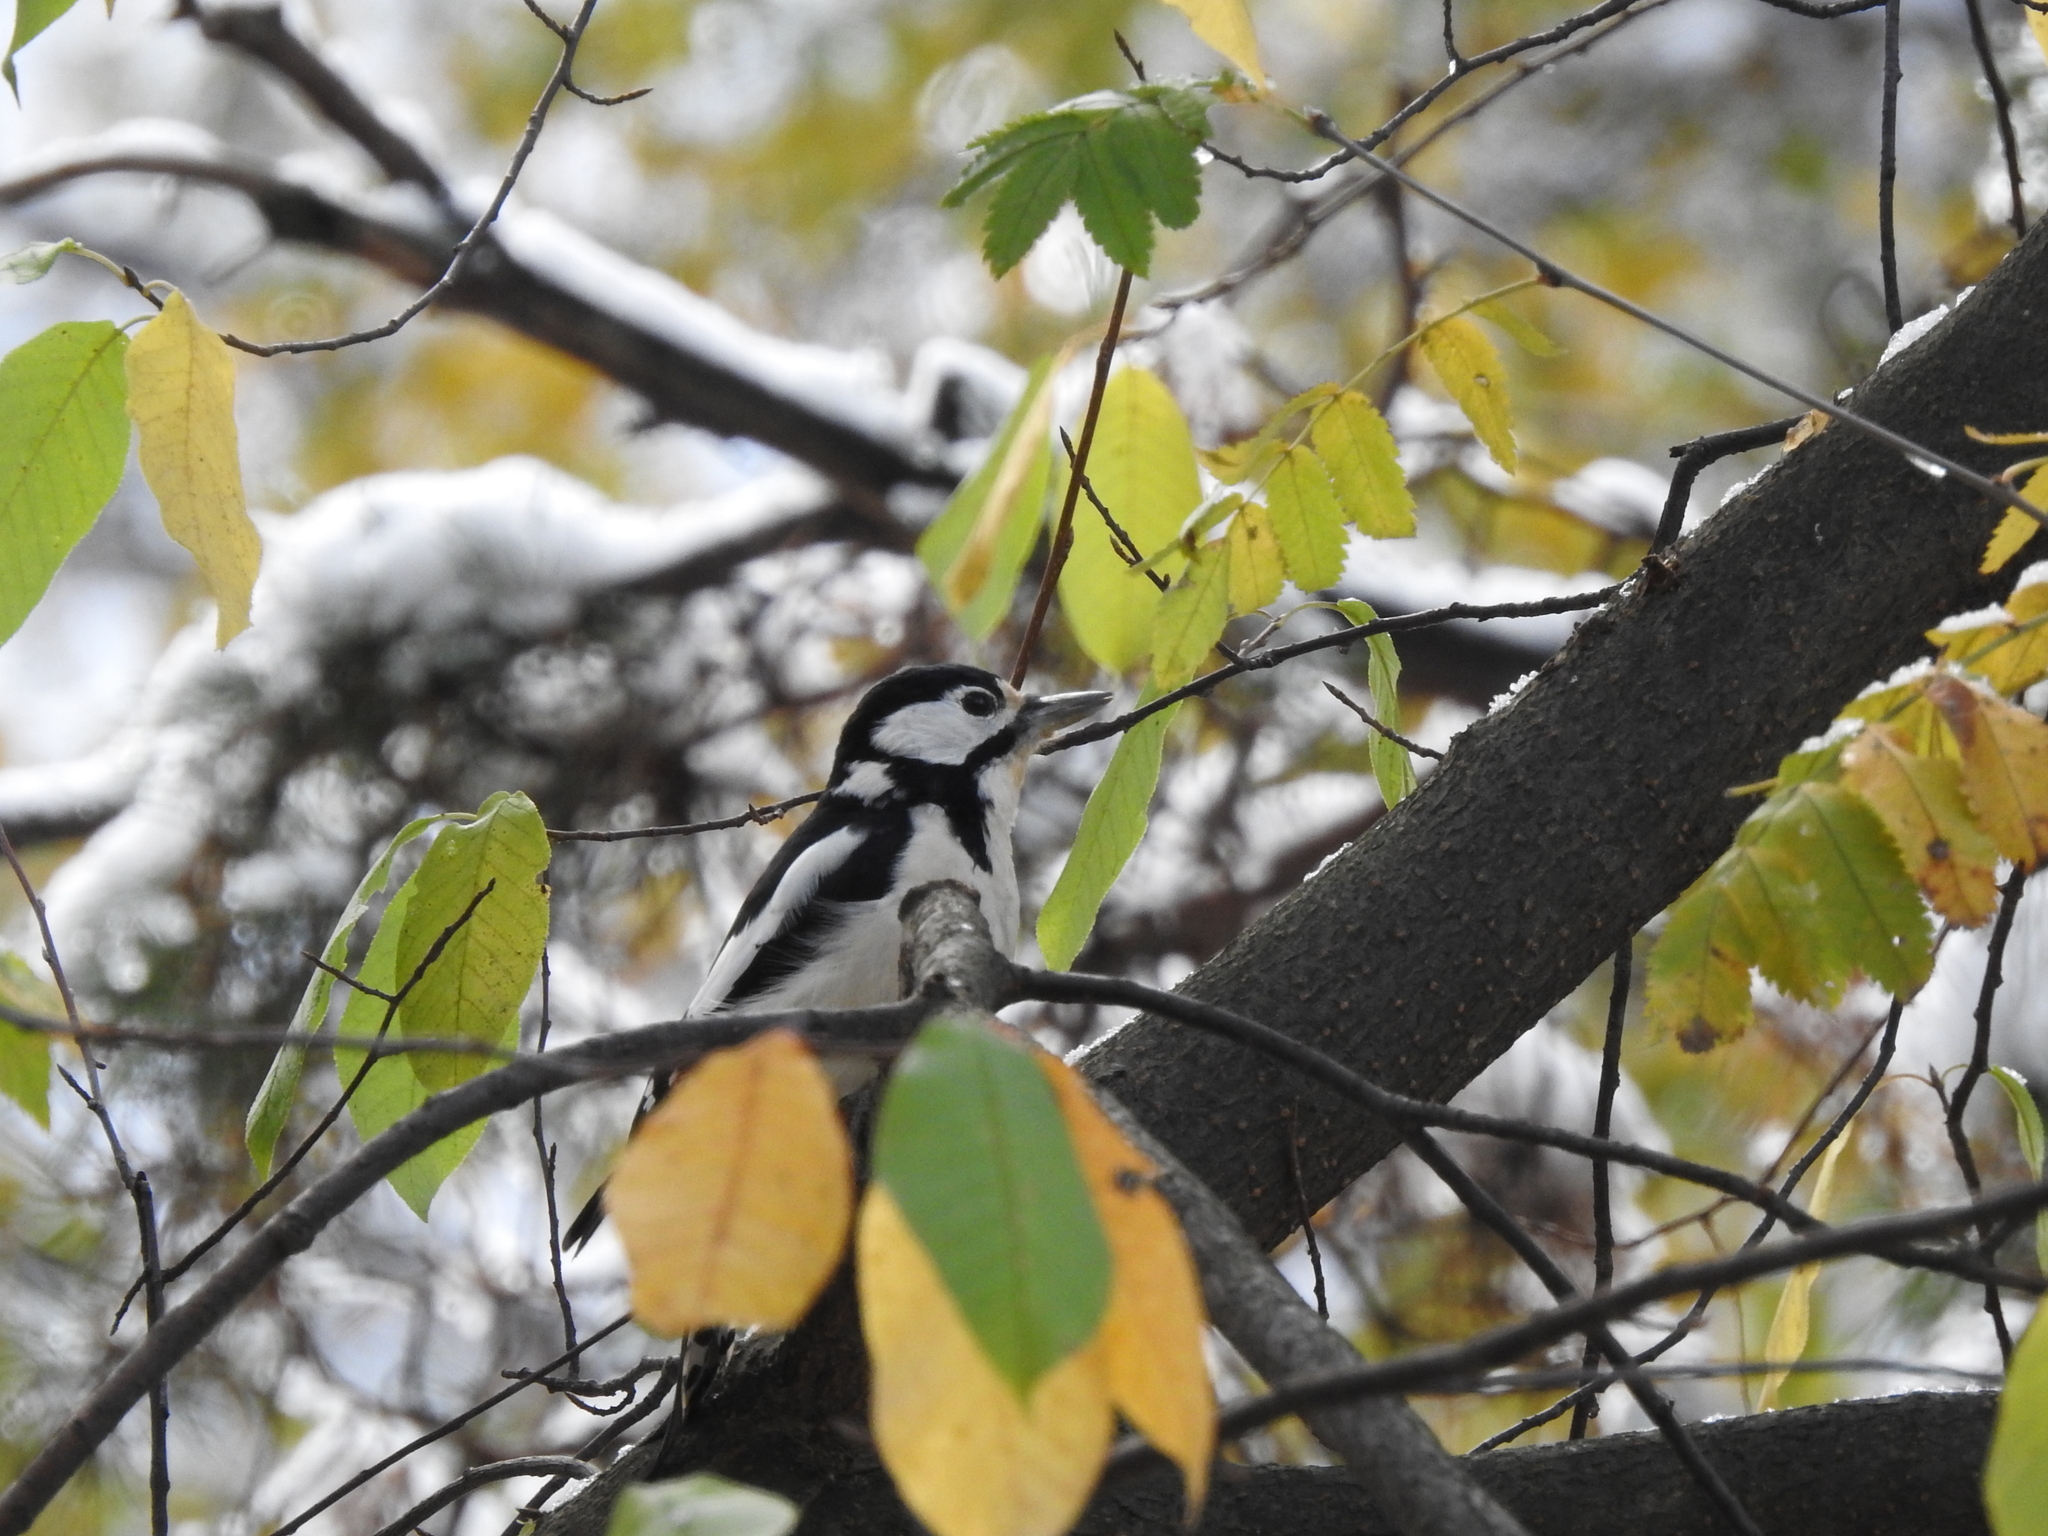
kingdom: Animalia
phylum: Chordata
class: Aves
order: Piciformes
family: Picidae
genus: Dendrocopos
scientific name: Dendrocopos major
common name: Great spotted woodpecker
